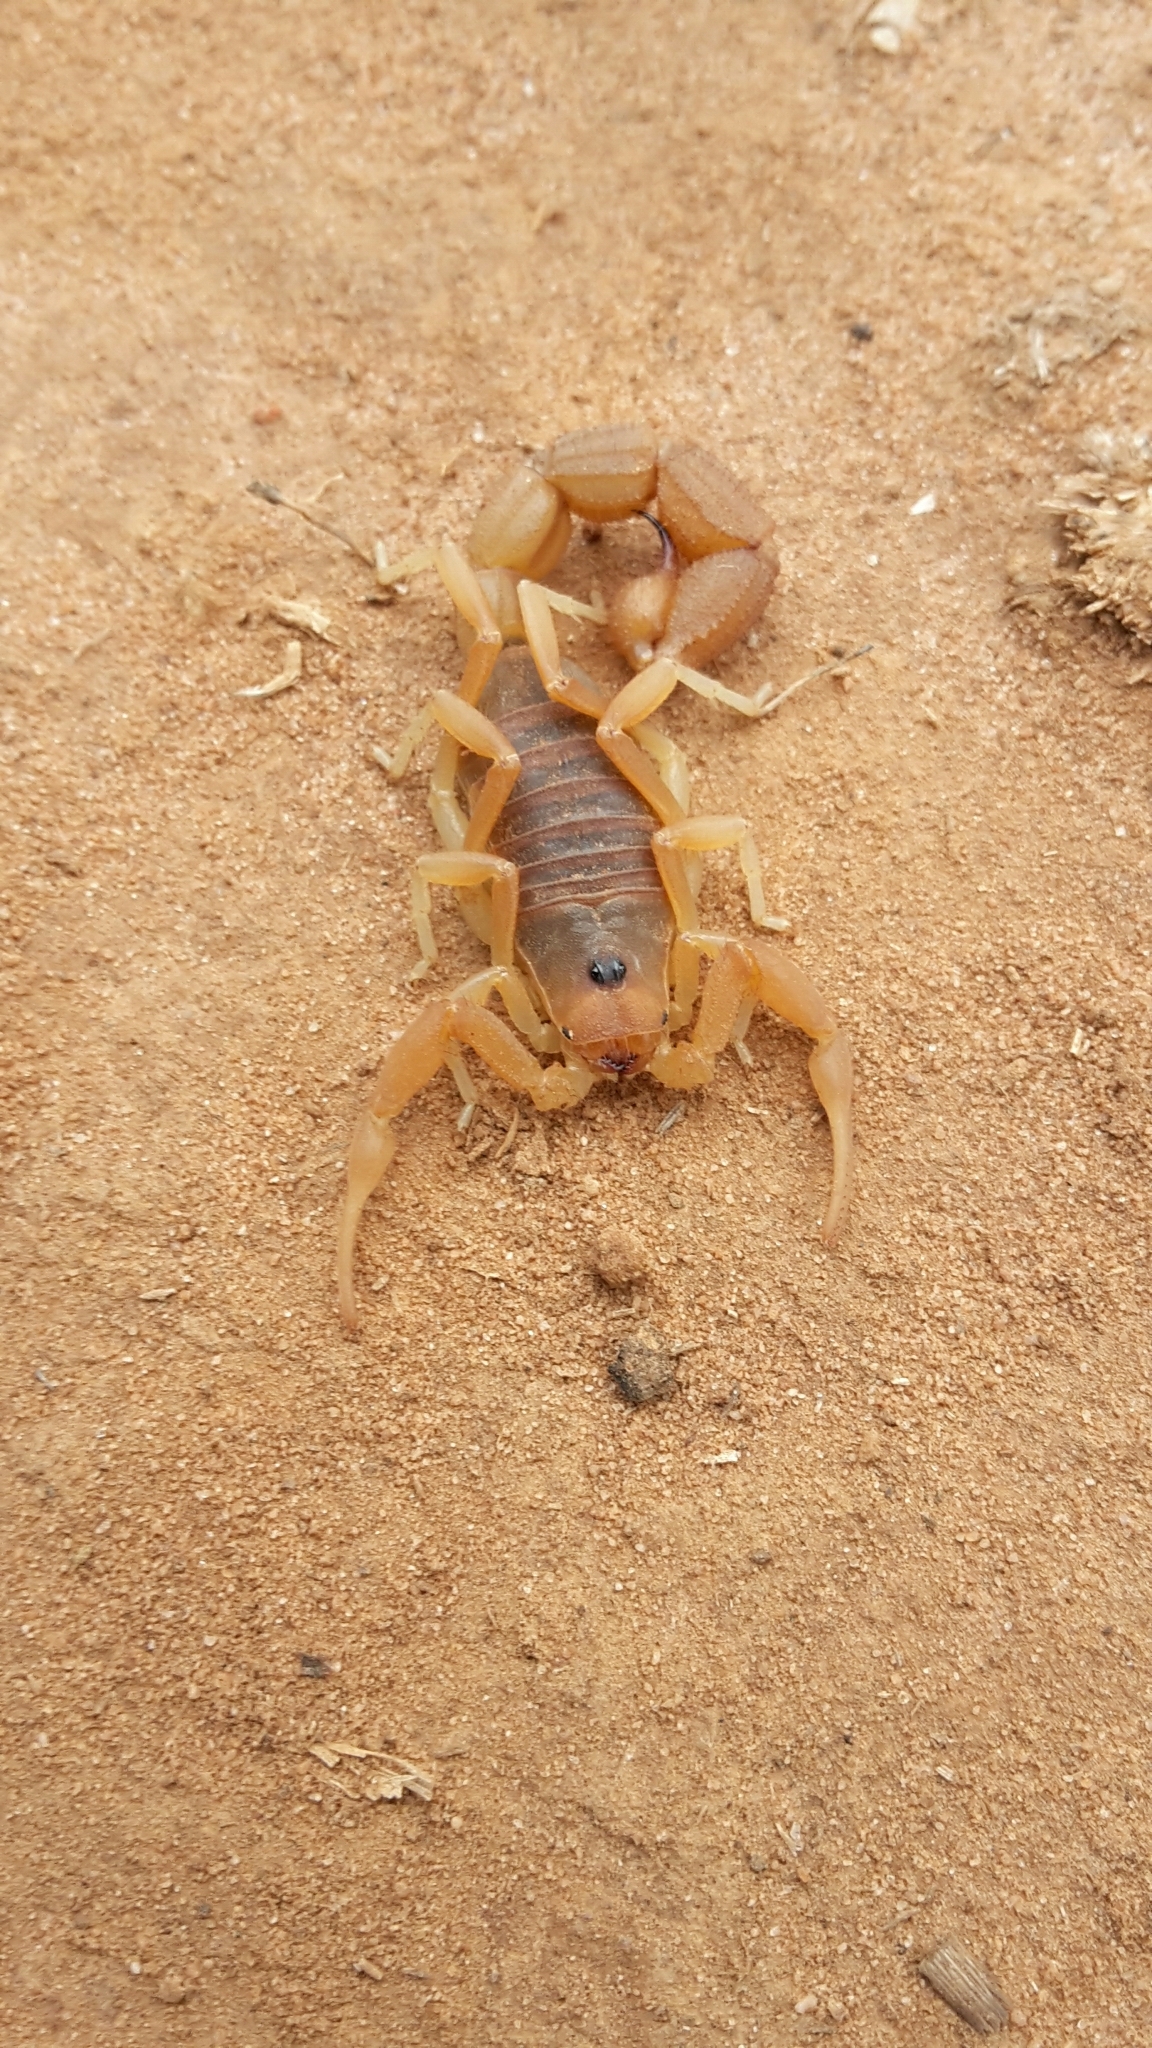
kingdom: Animalia
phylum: Arthropoda
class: Arachnida
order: Scorpiones
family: Buthidae
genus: Parabuthus
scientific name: Parabuthus planicauda
